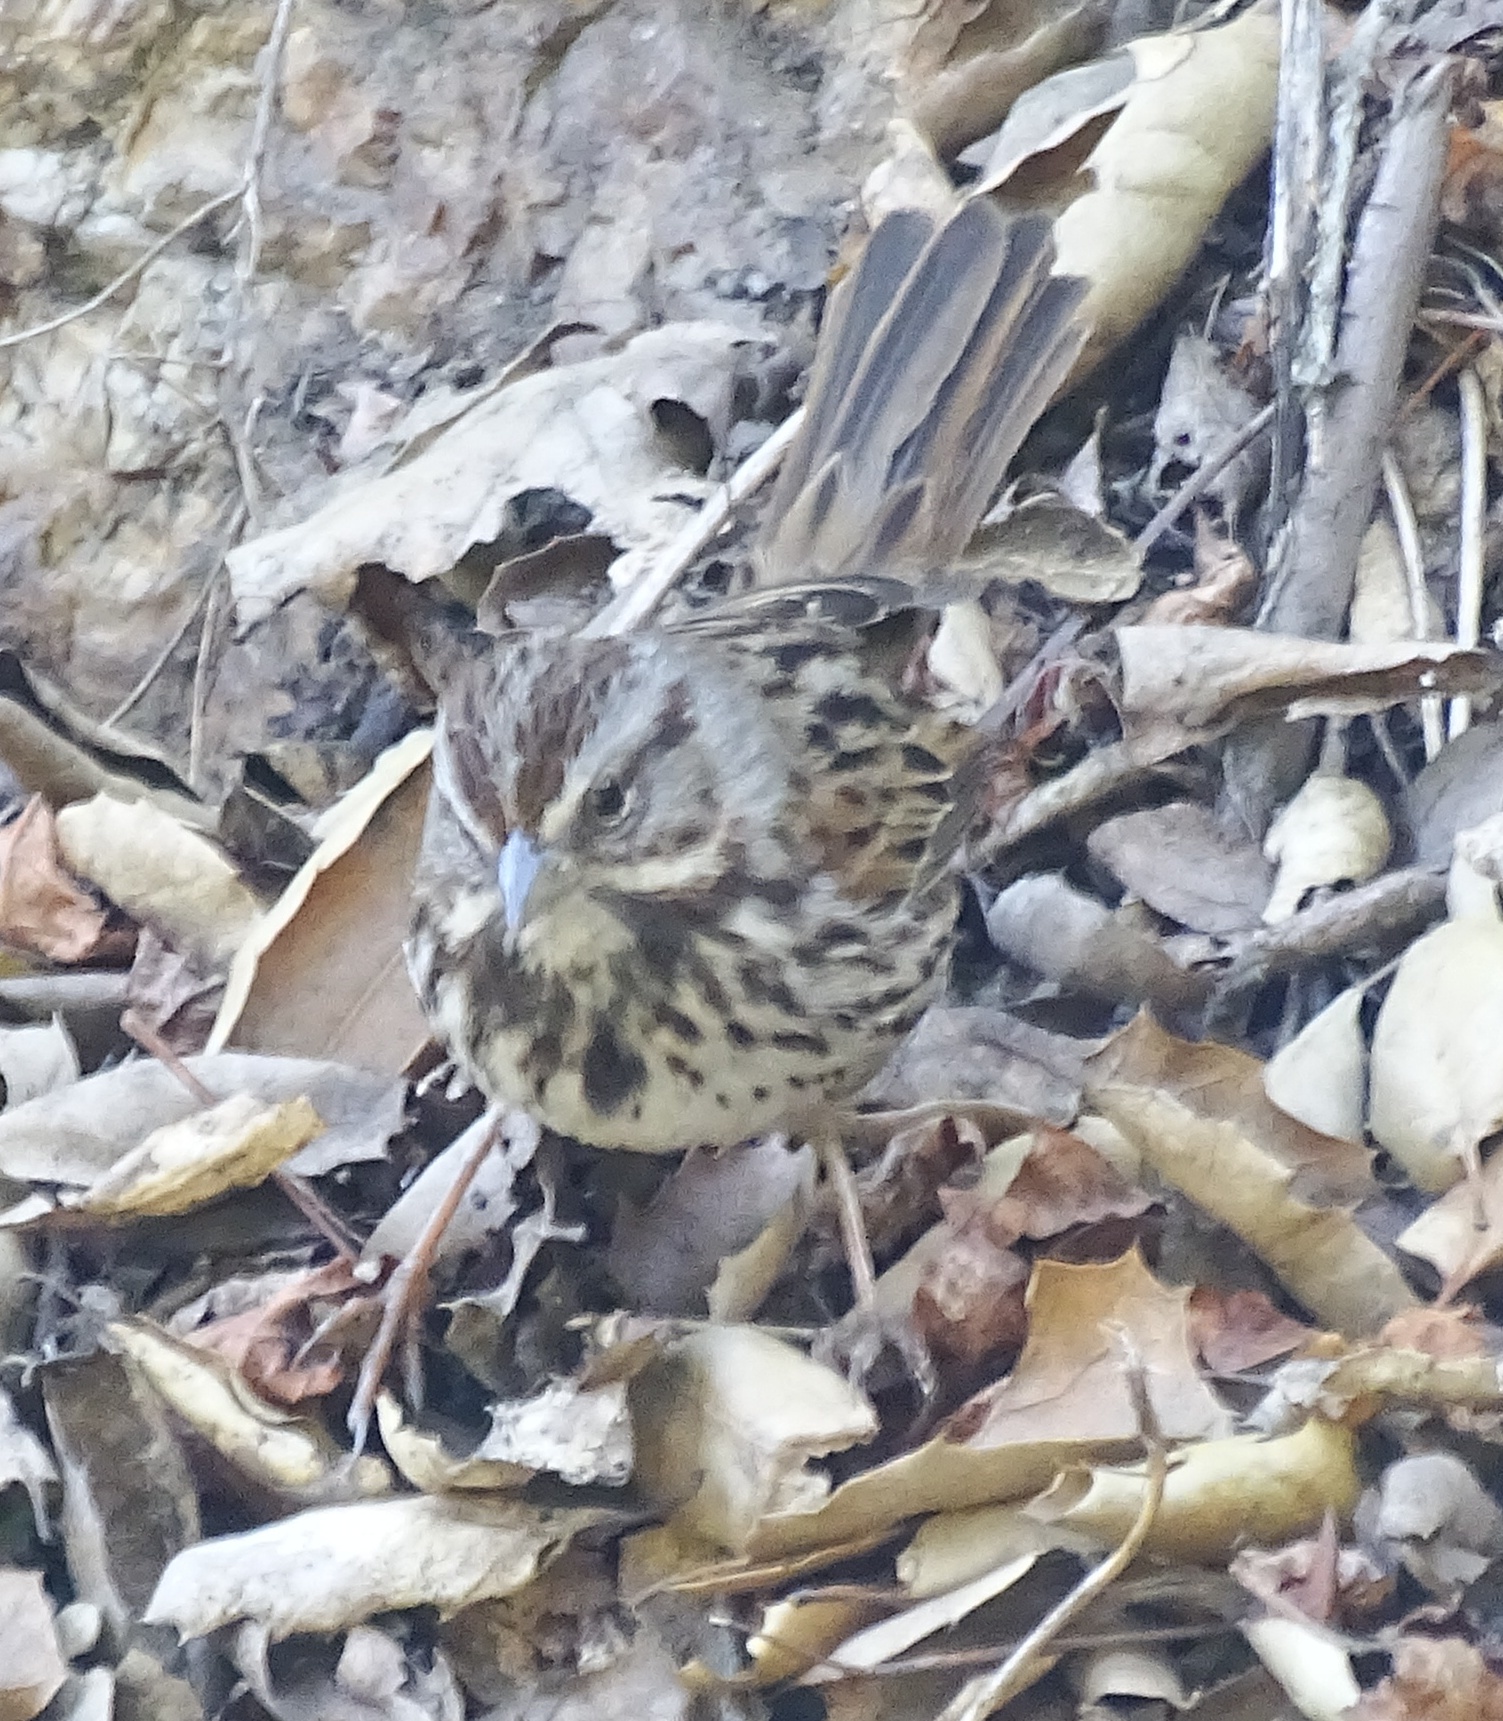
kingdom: Animalia
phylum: Chordata
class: Aves
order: Passeriformes
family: Passerellidae
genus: Melospiza
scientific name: Melospiza melodia
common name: Song sparrow
